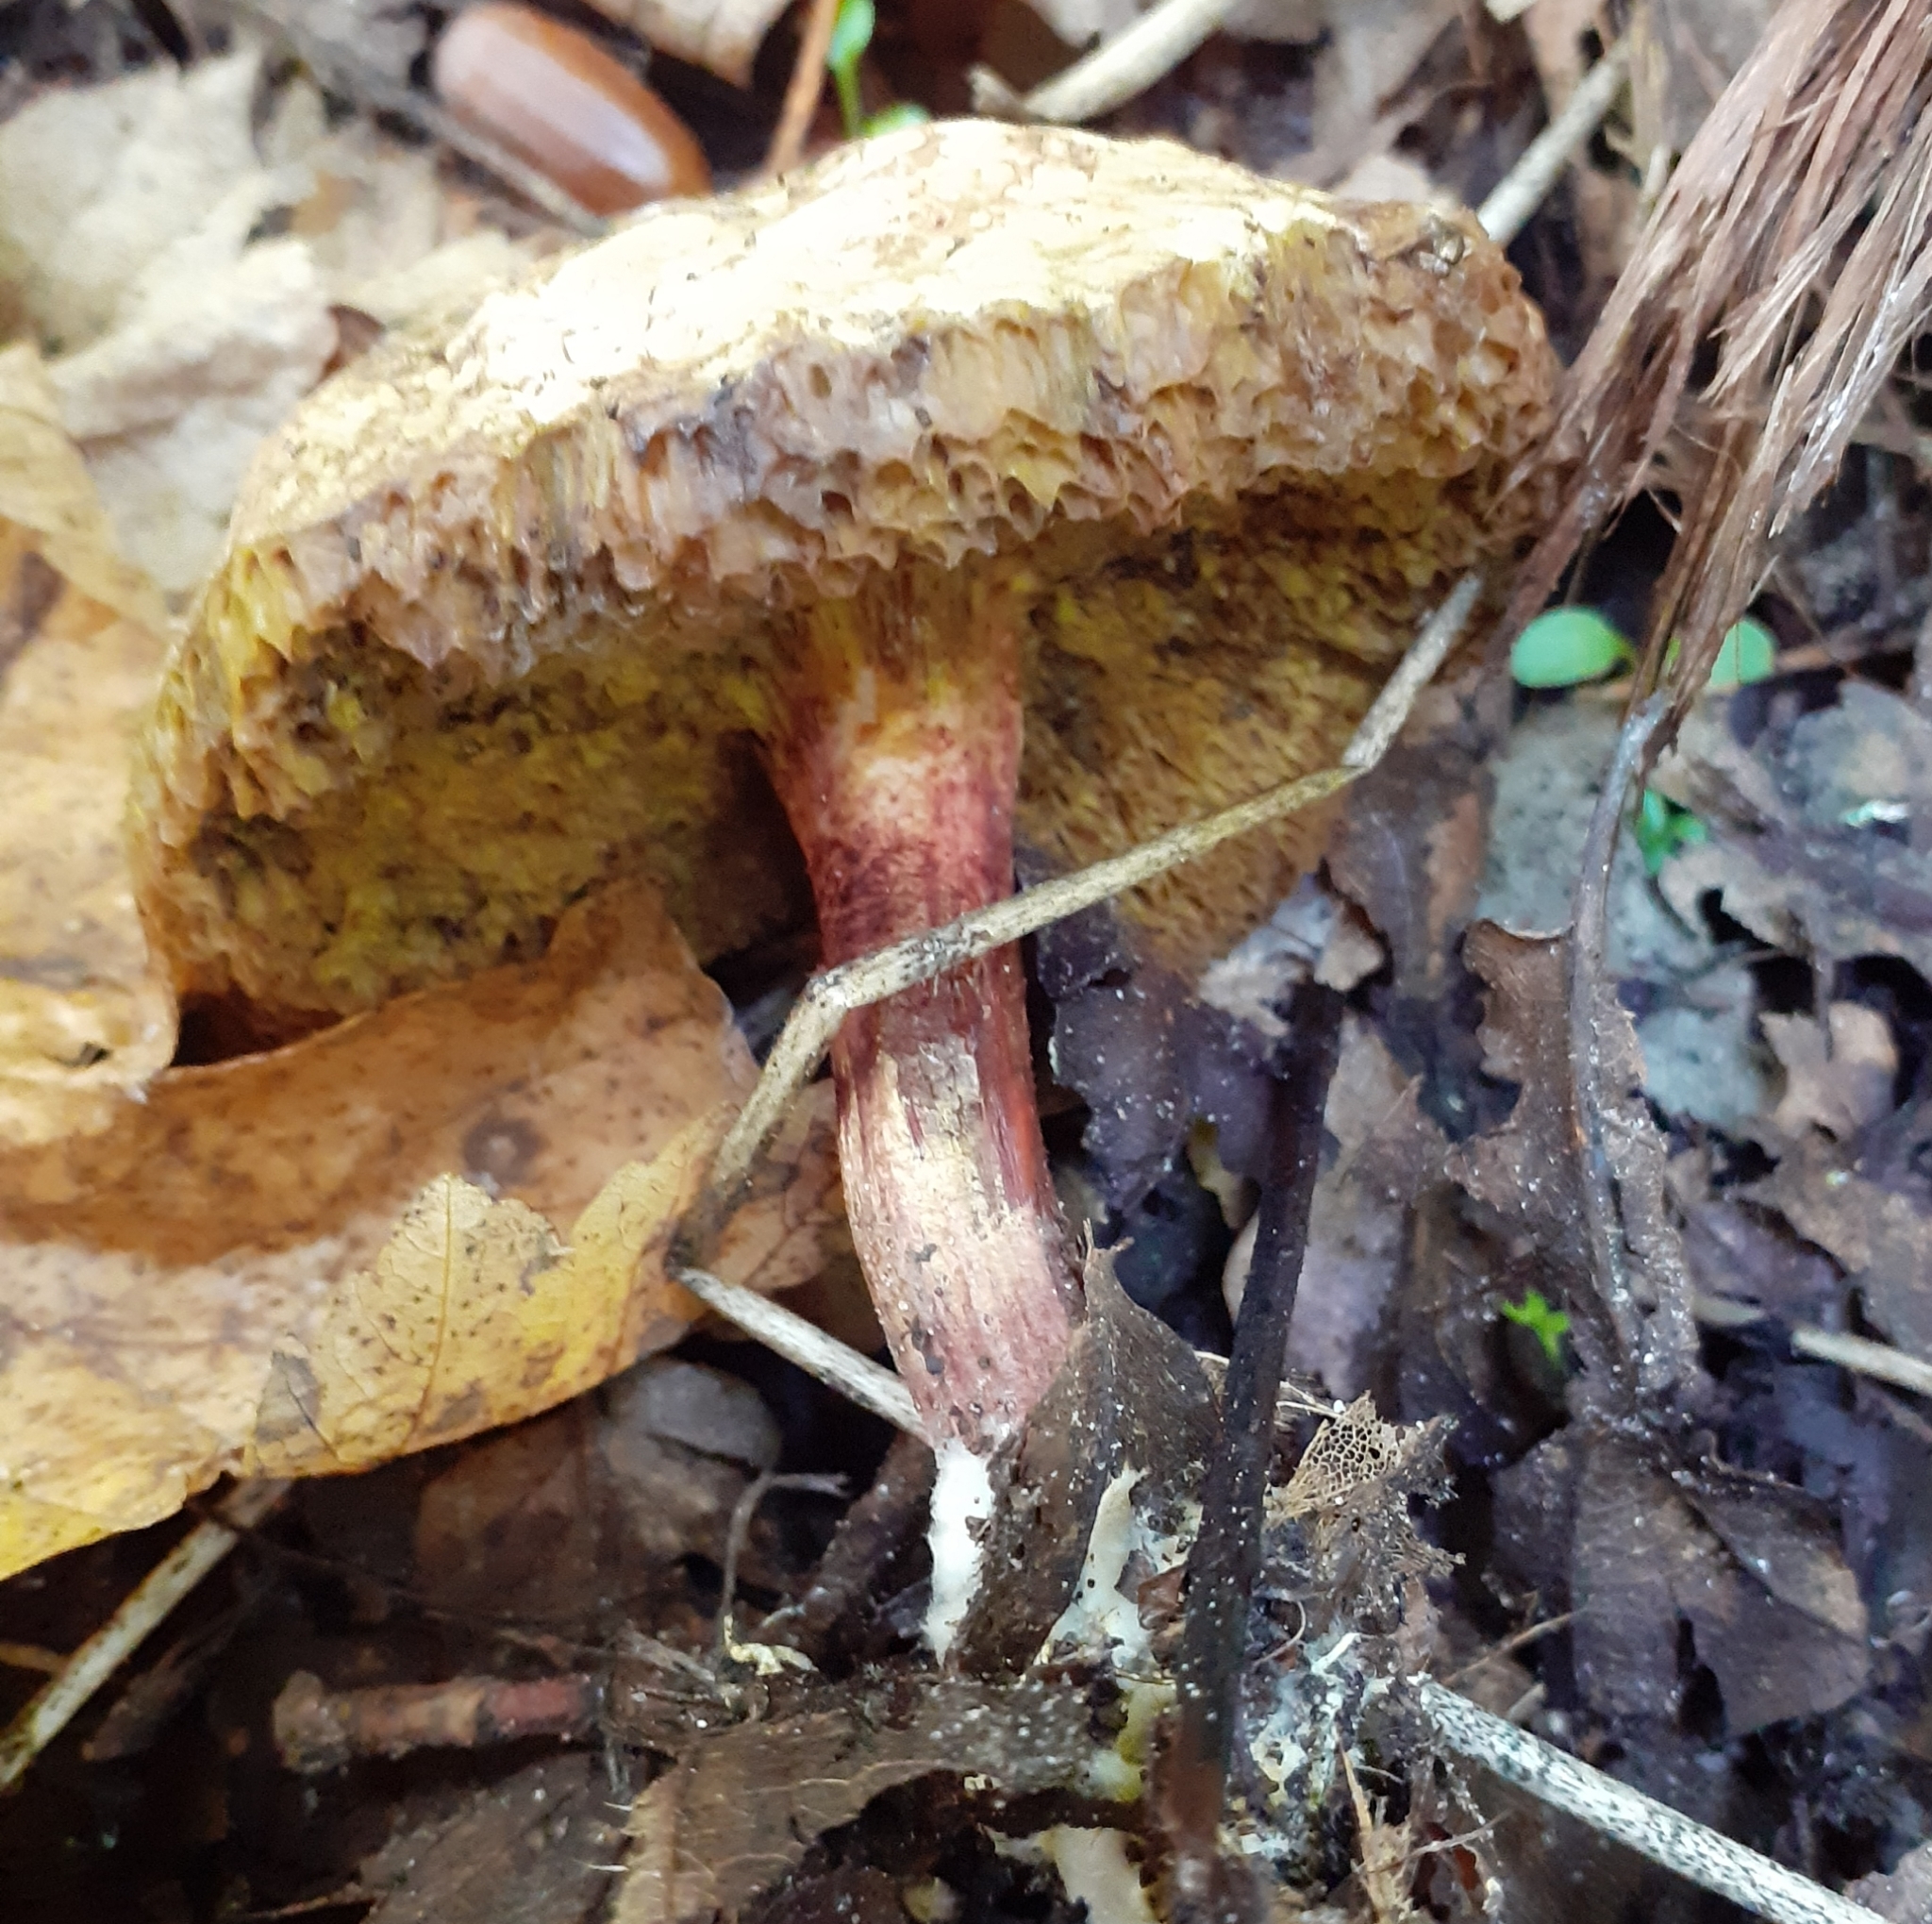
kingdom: Fungi
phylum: Basidiomycota
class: Agaricomycetes
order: Boletales
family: Boletaceae
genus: Xerocomellus
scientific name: Xerocomellus chrysenteron
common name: Red-cracking bolete
